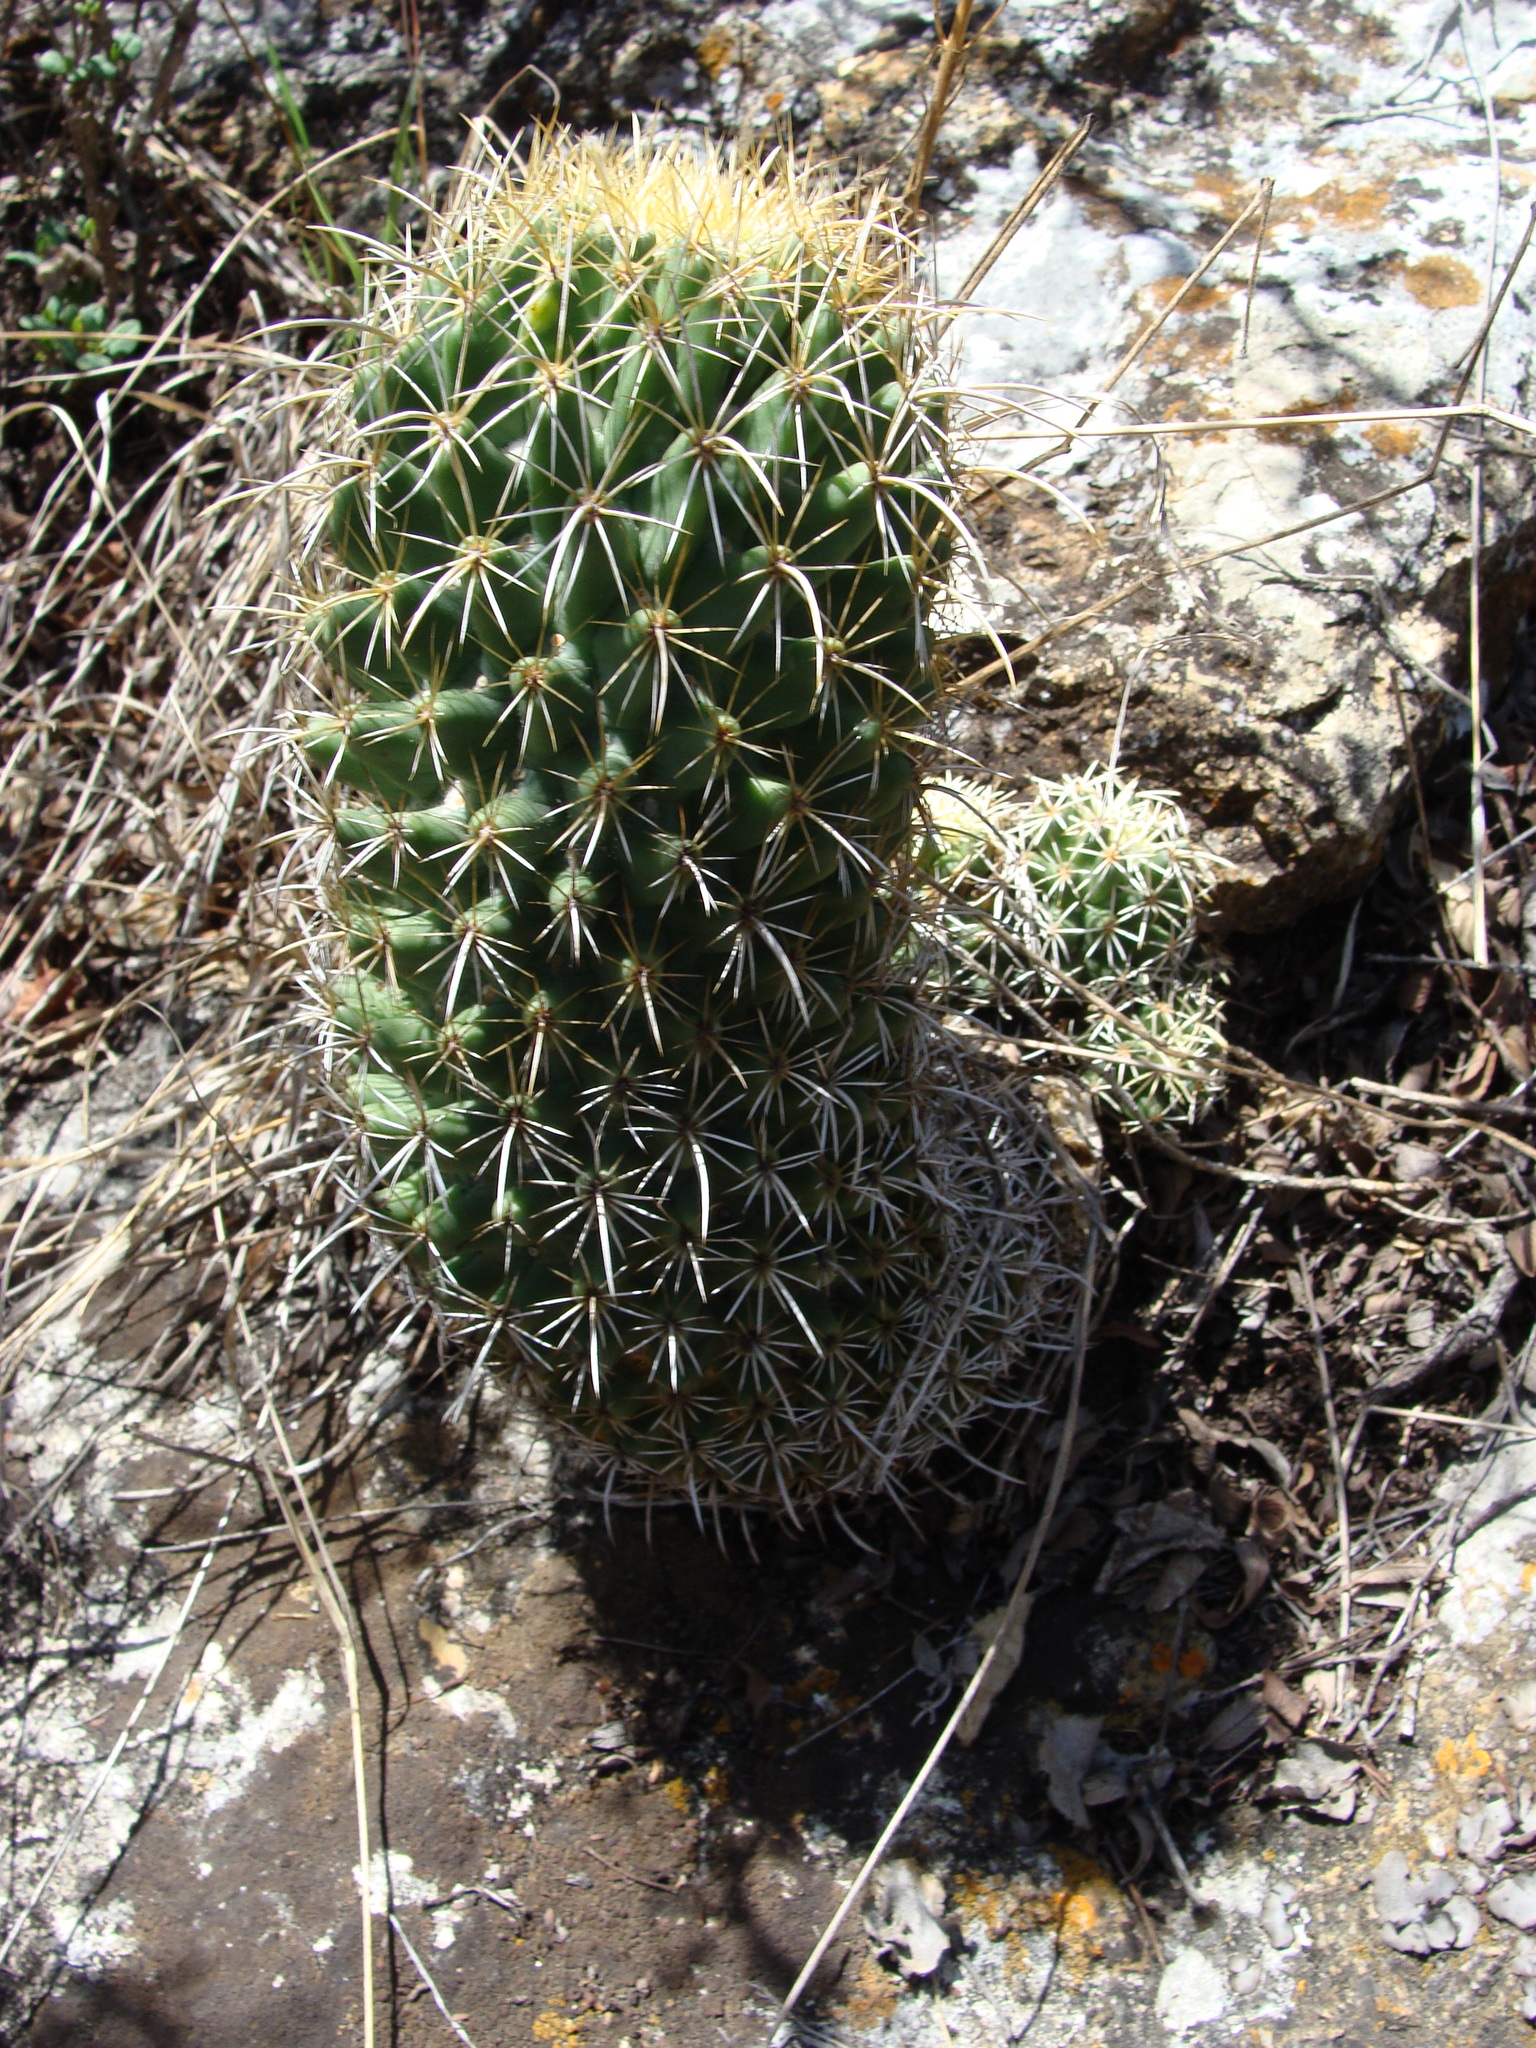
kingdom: Plantae
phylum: Tracheophyta
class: Magnoliopsida
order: Caryophyllales
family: Cactaceae
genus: Coryphantha
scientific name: Coryphantha glassii
